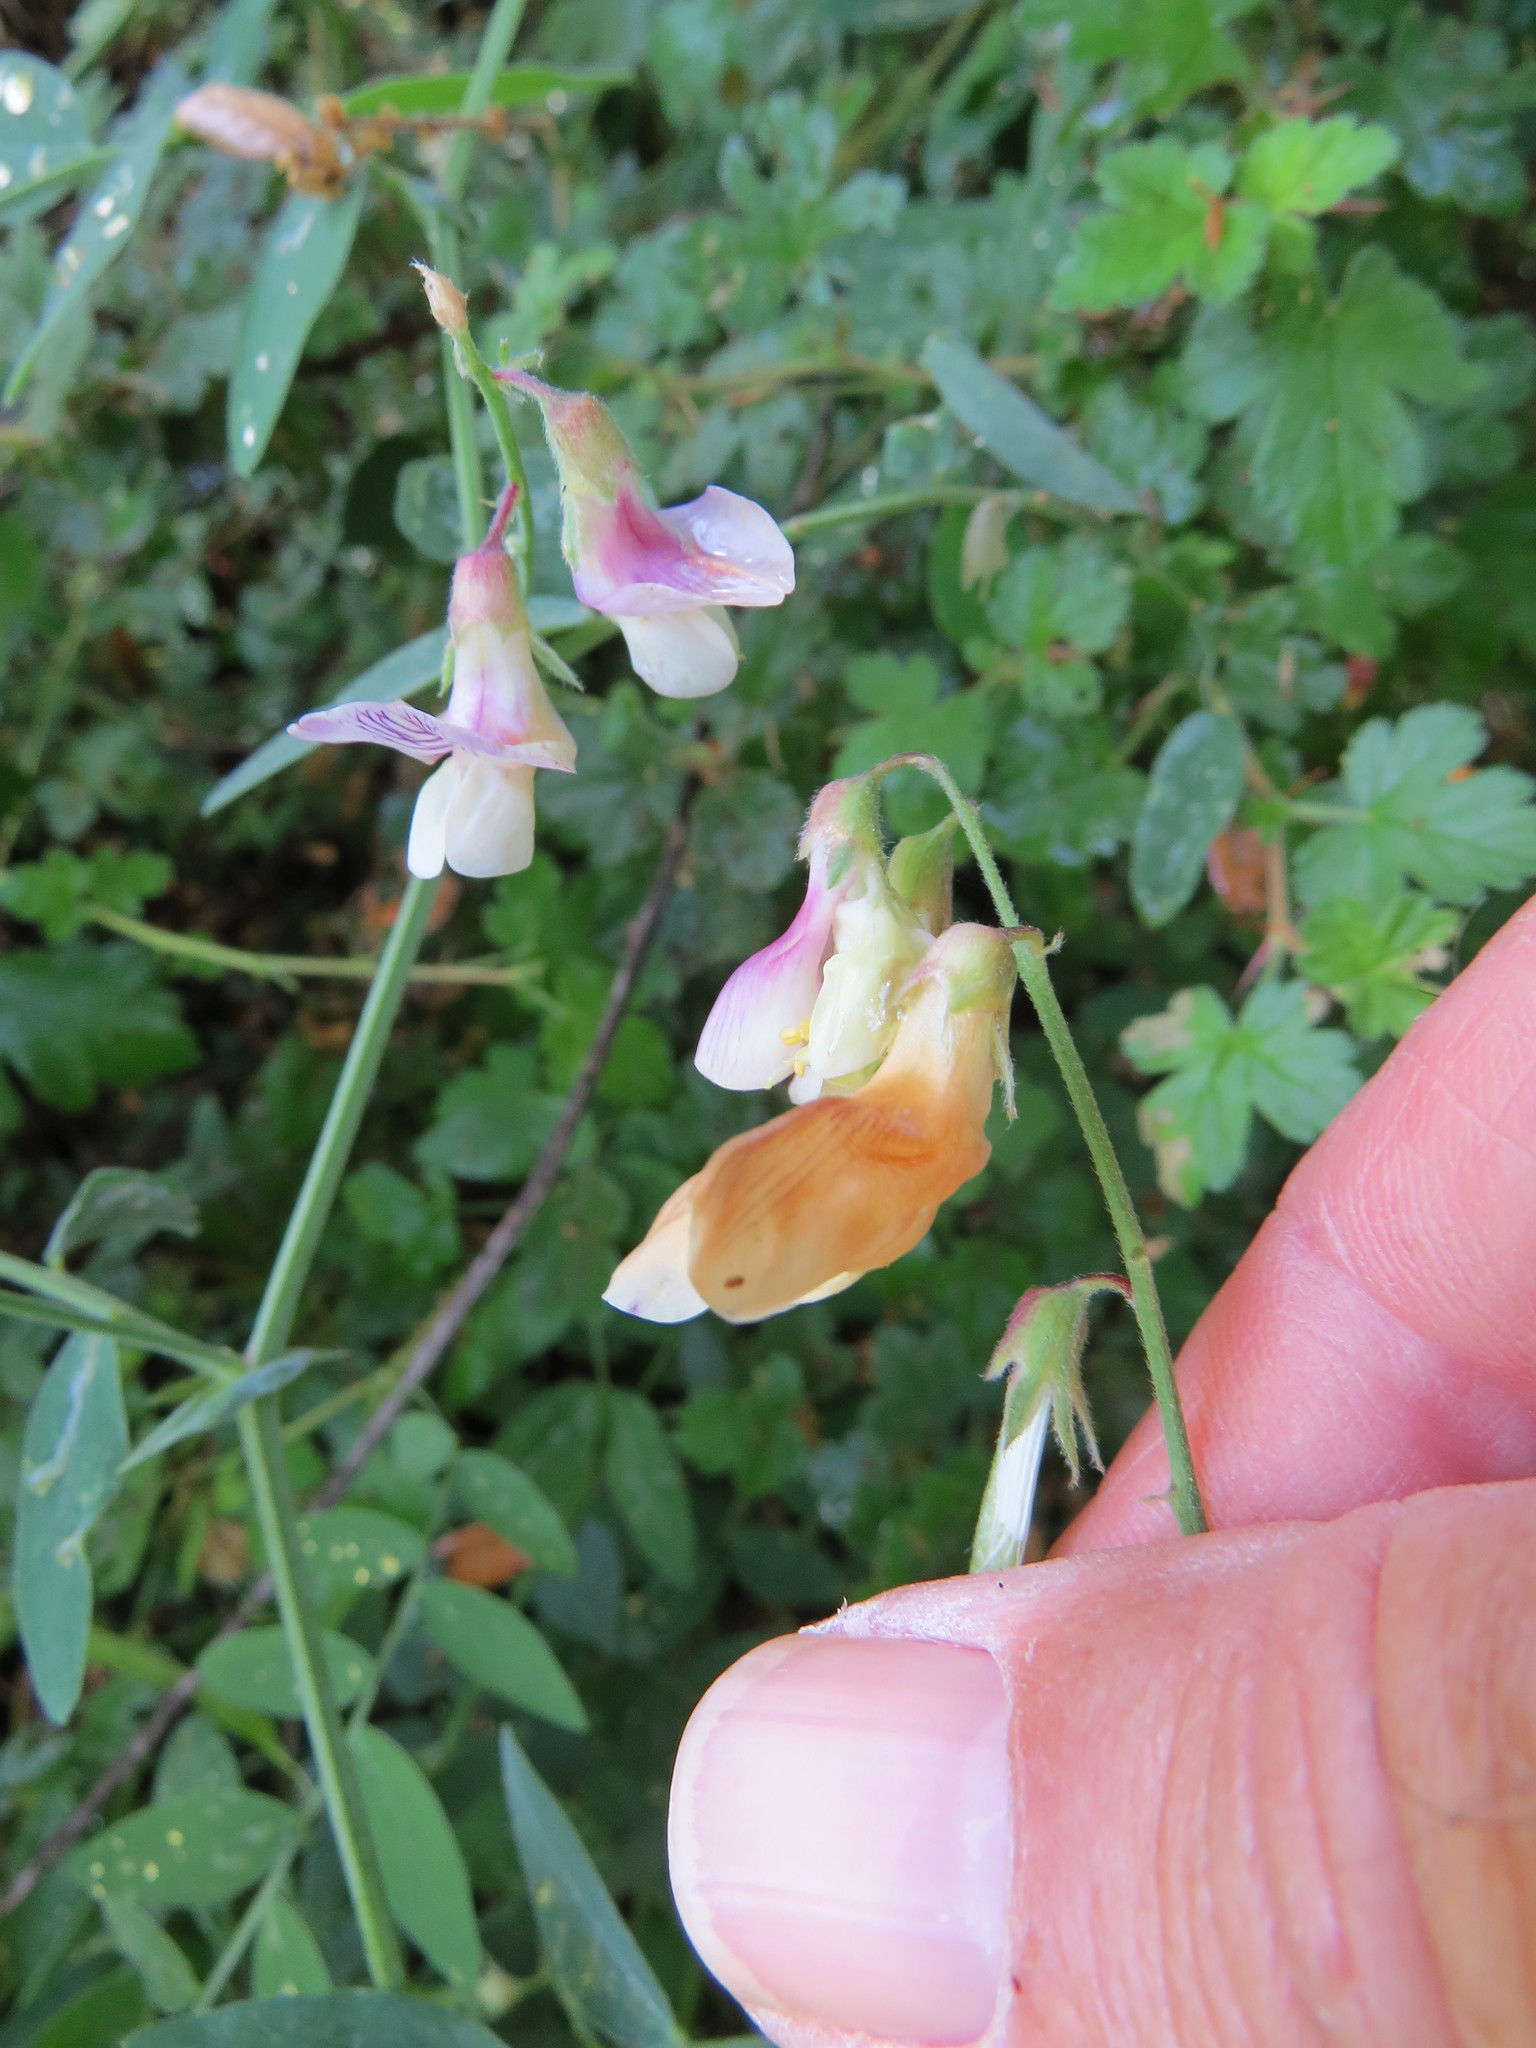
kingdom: Plantae
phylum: Tracheophyta
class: Magnoliopsida
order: Fabales
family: Fabaceae
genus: Lathyrus
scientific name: Lathyrus vestitus
